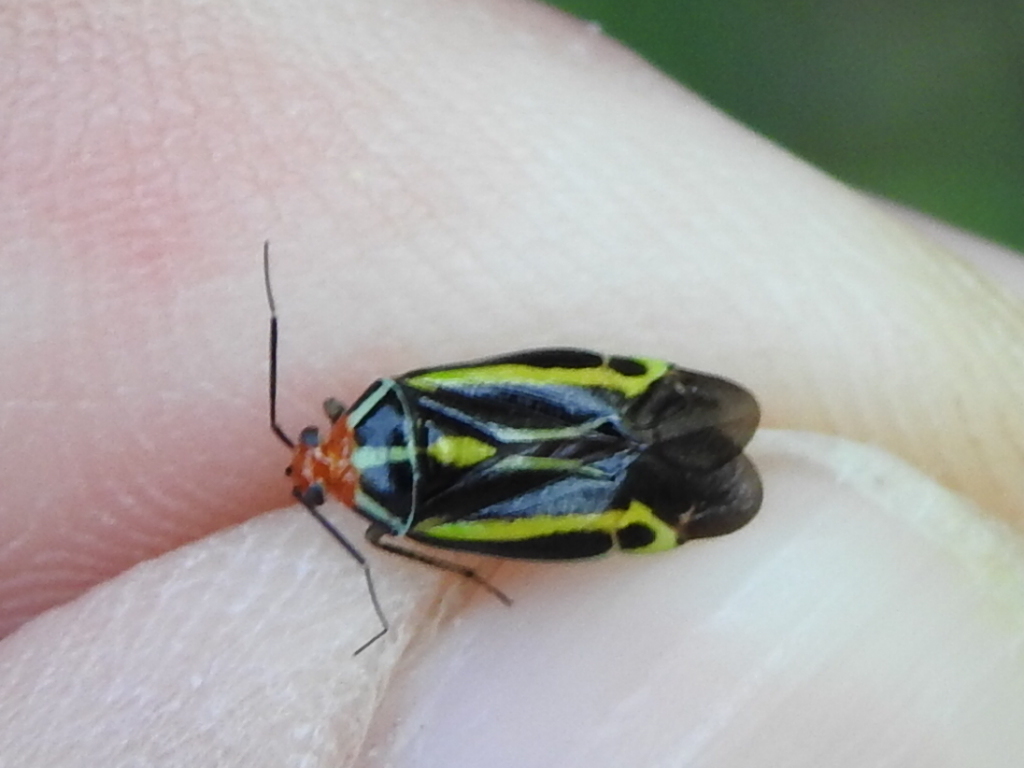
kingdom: Animalia
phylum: Arthropoda
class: Insecta
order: Hemiptera
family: Miridae
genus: Poecilocapsus
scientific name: Poecilocapsus lineatus
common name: Four-lined plant bug
